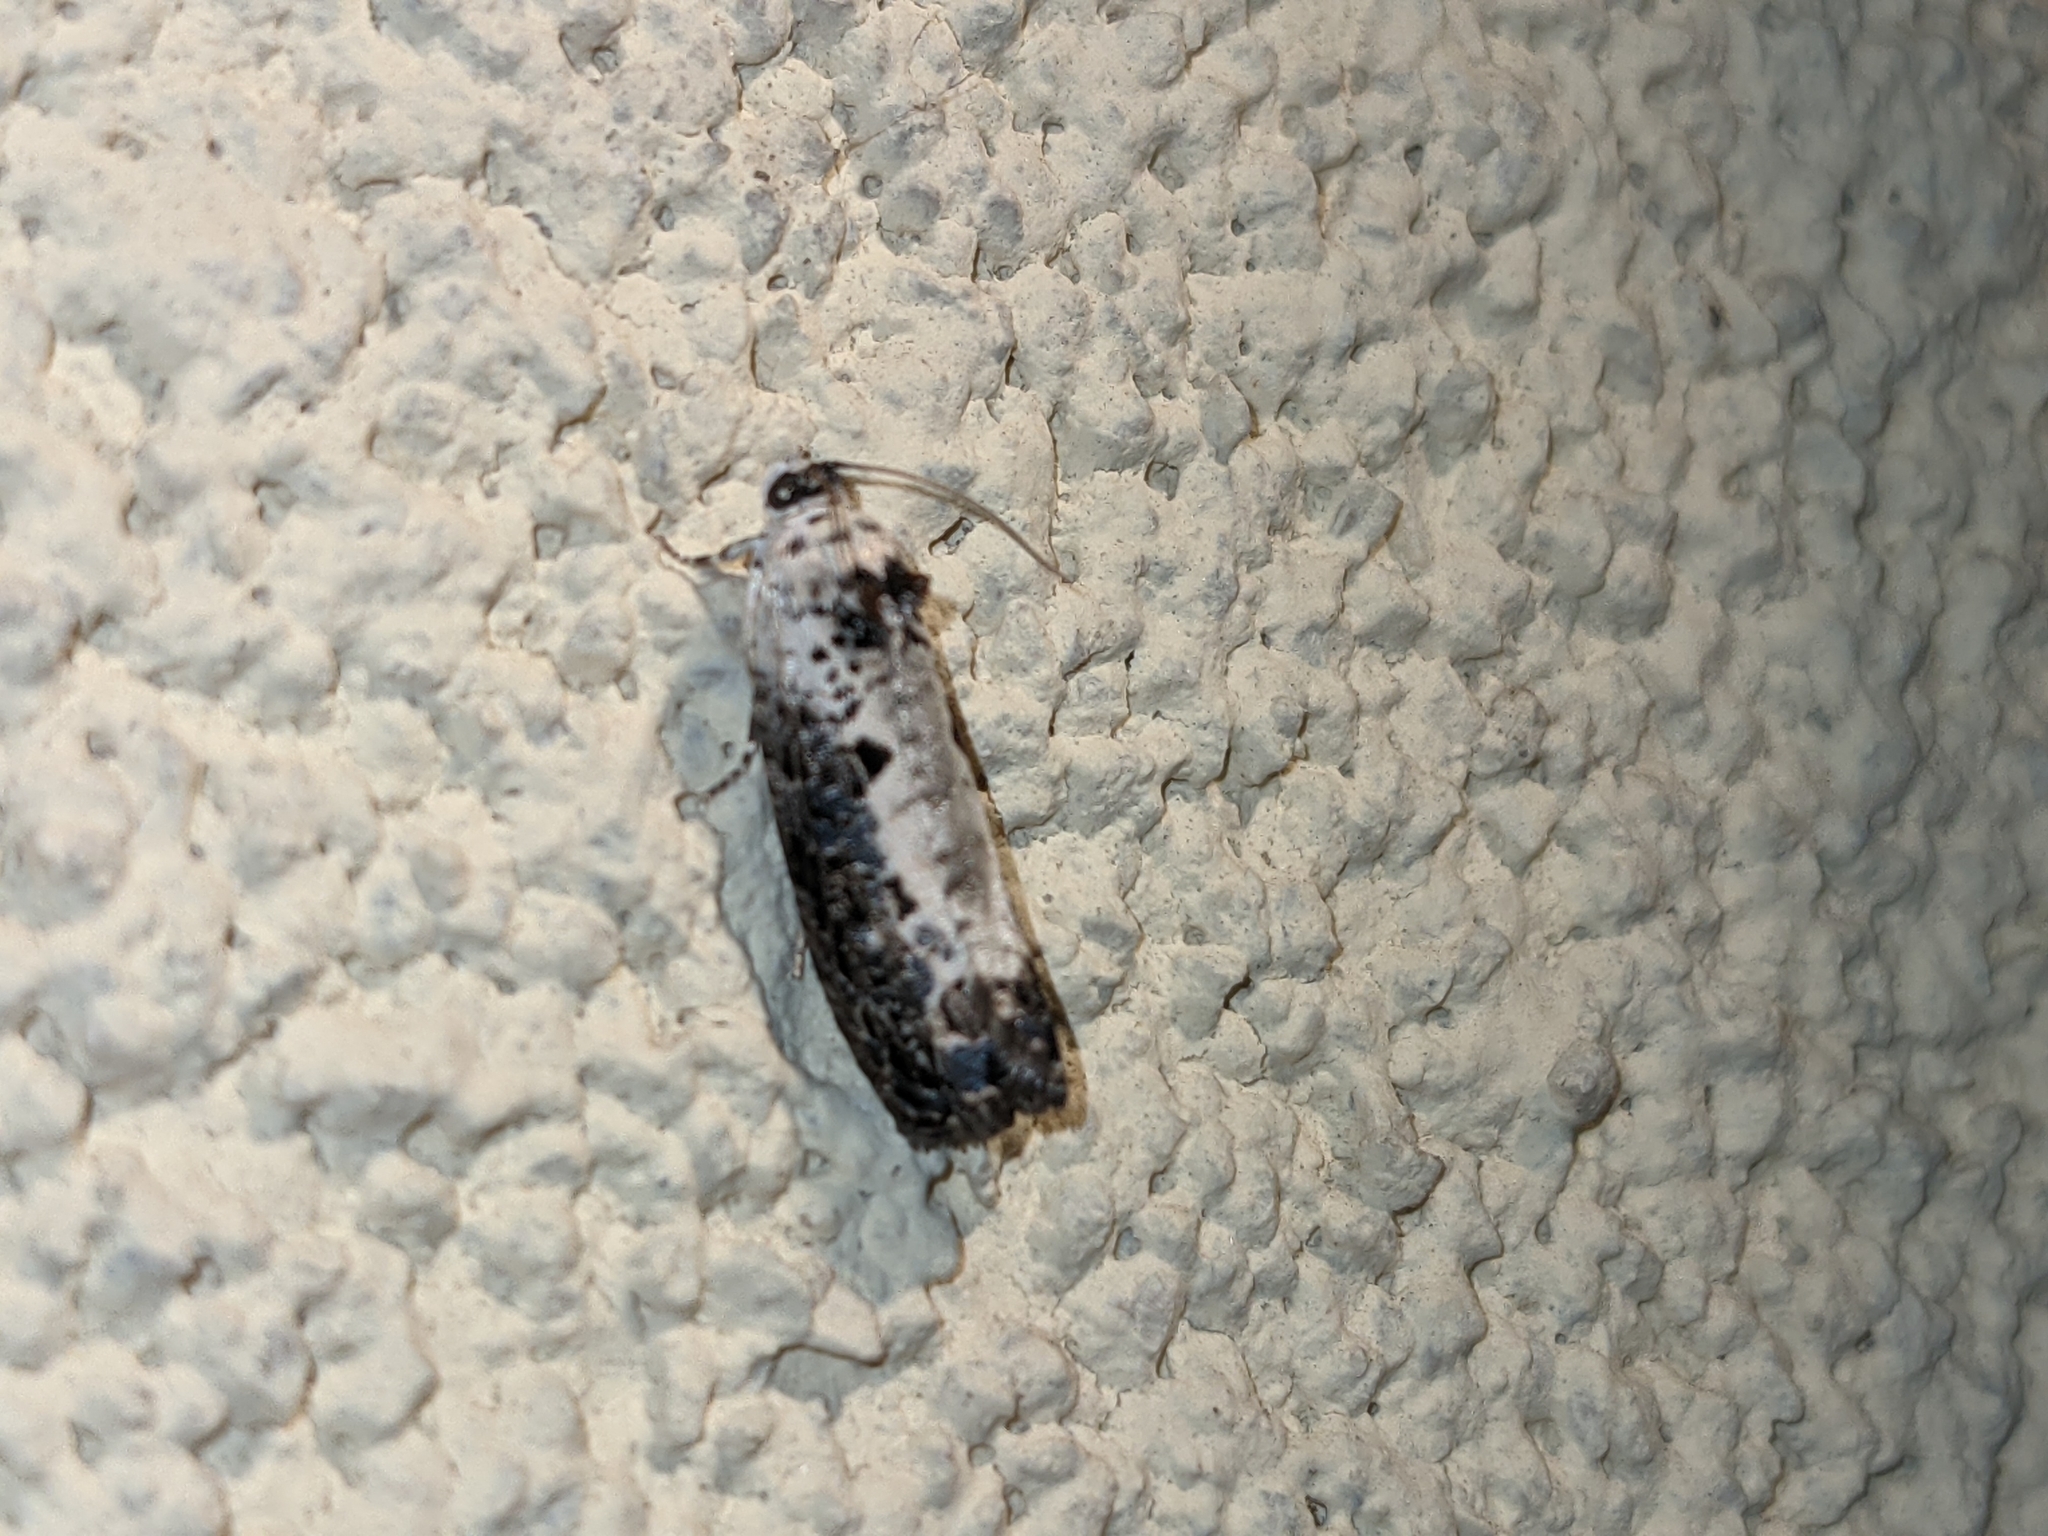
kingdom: Animalia
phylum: Arthropoda
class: Insecta
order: Lepidoptera
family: Tortricidae
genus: Hedya
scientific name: Hedya salicella
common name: Large tortricid moth
